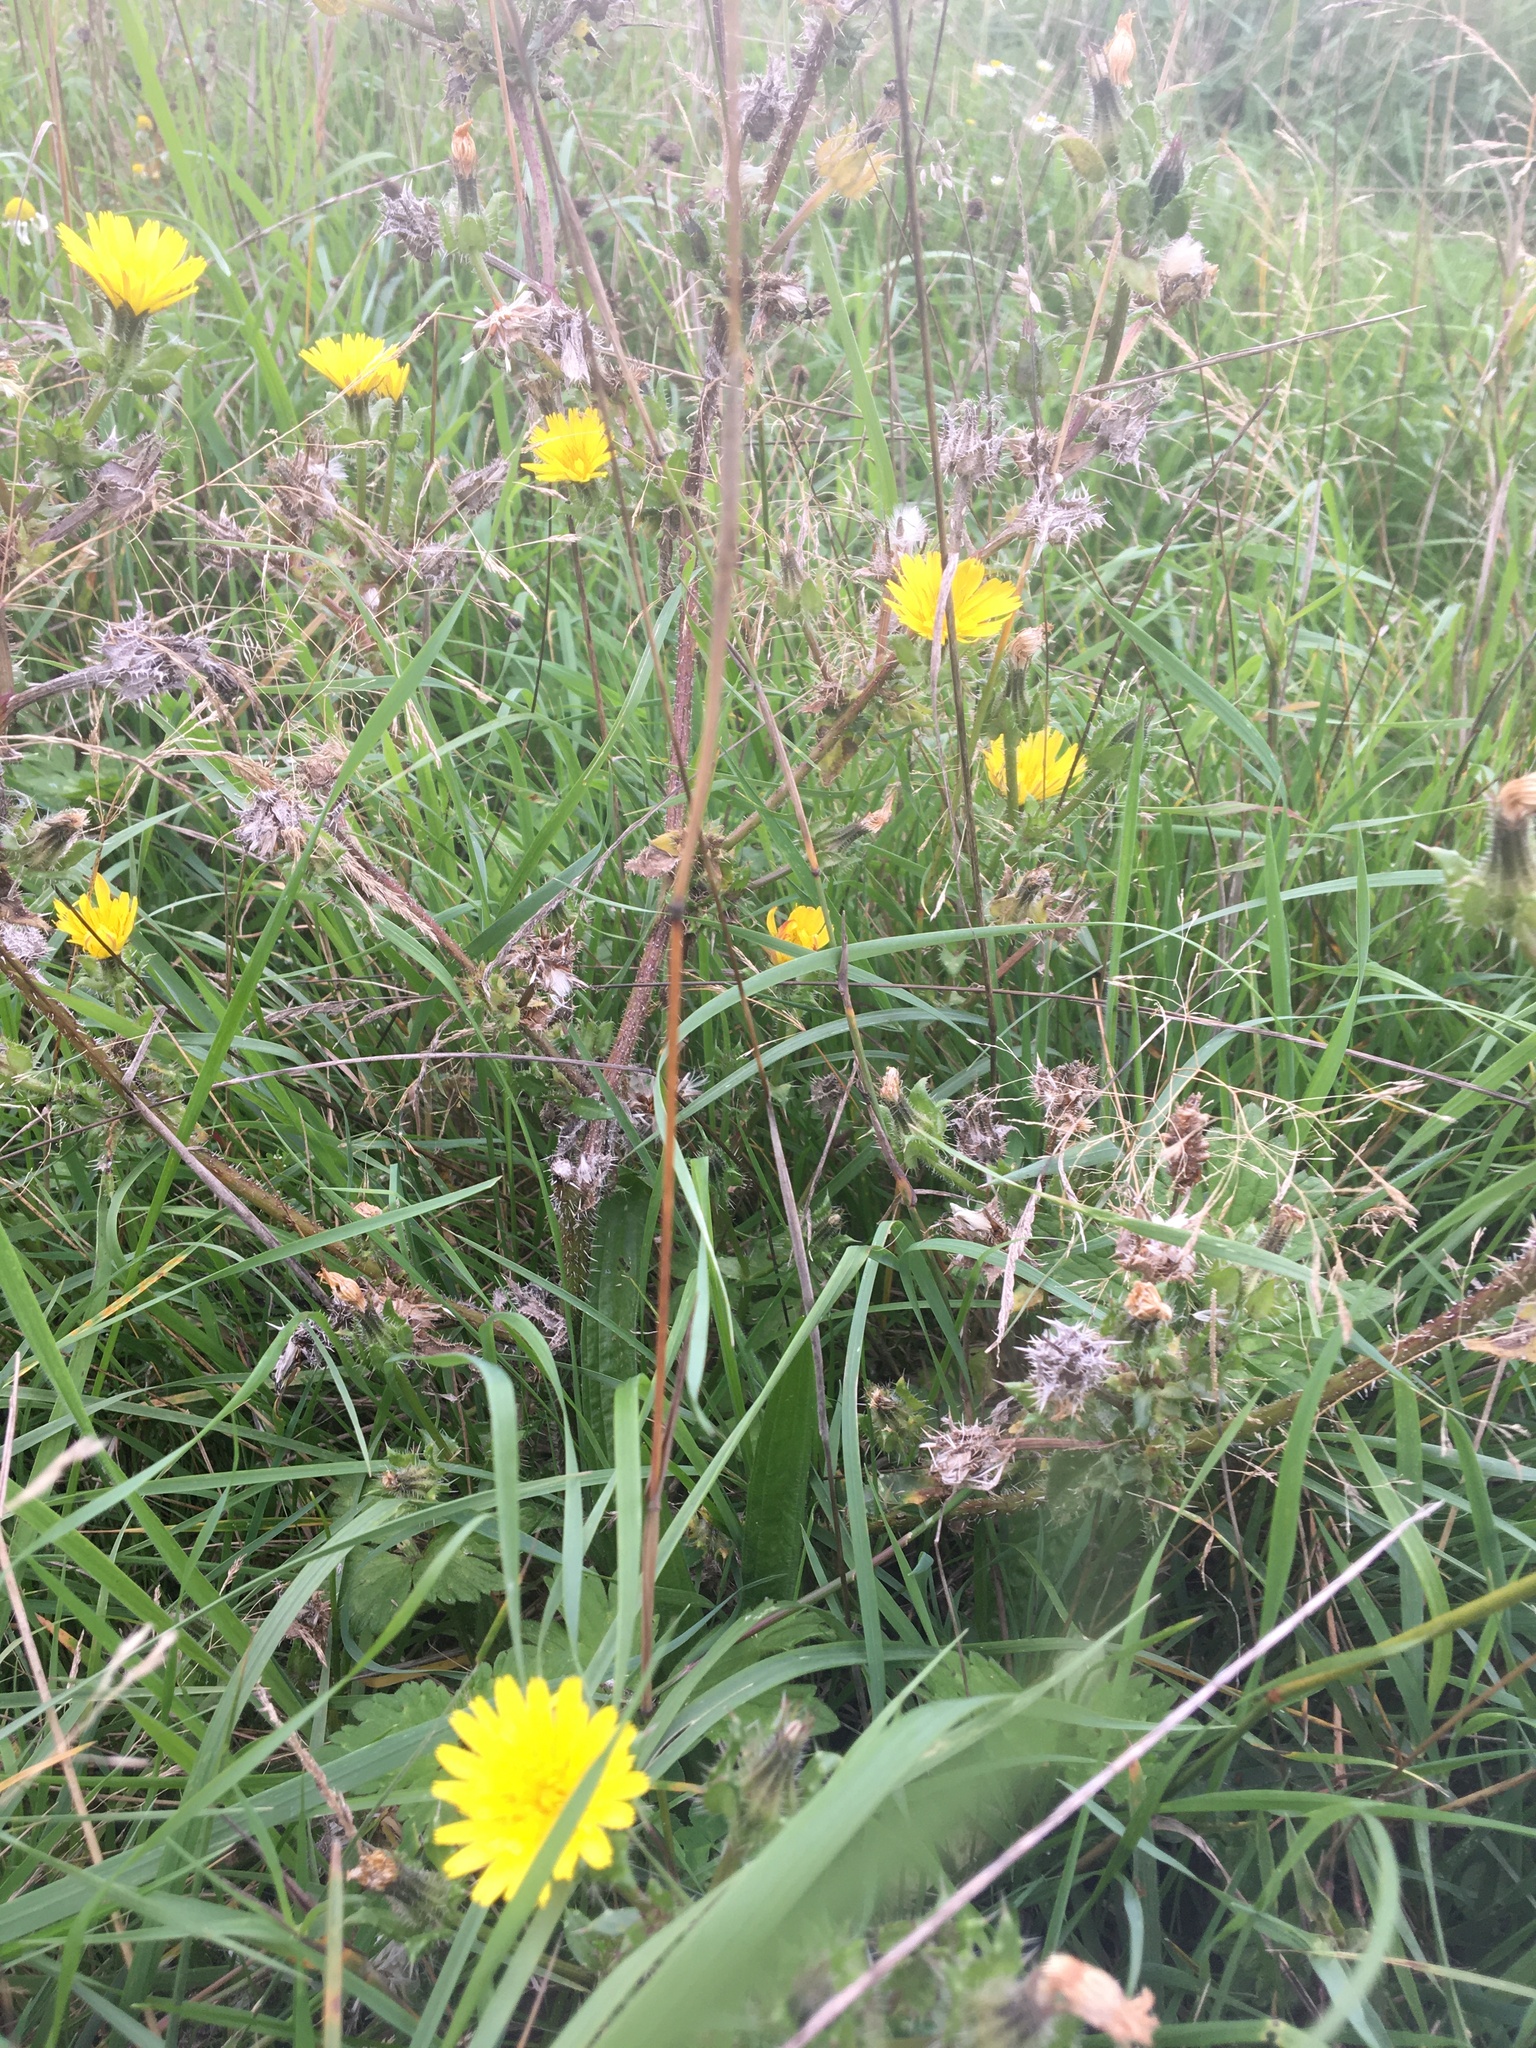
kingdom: Plantae
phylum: Tracheophyta
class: Magnoliopsida
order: Asterales
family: Asteraceae
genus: Helminthotheca
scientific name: Helminthotheca echioides
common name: Ox-tongue
